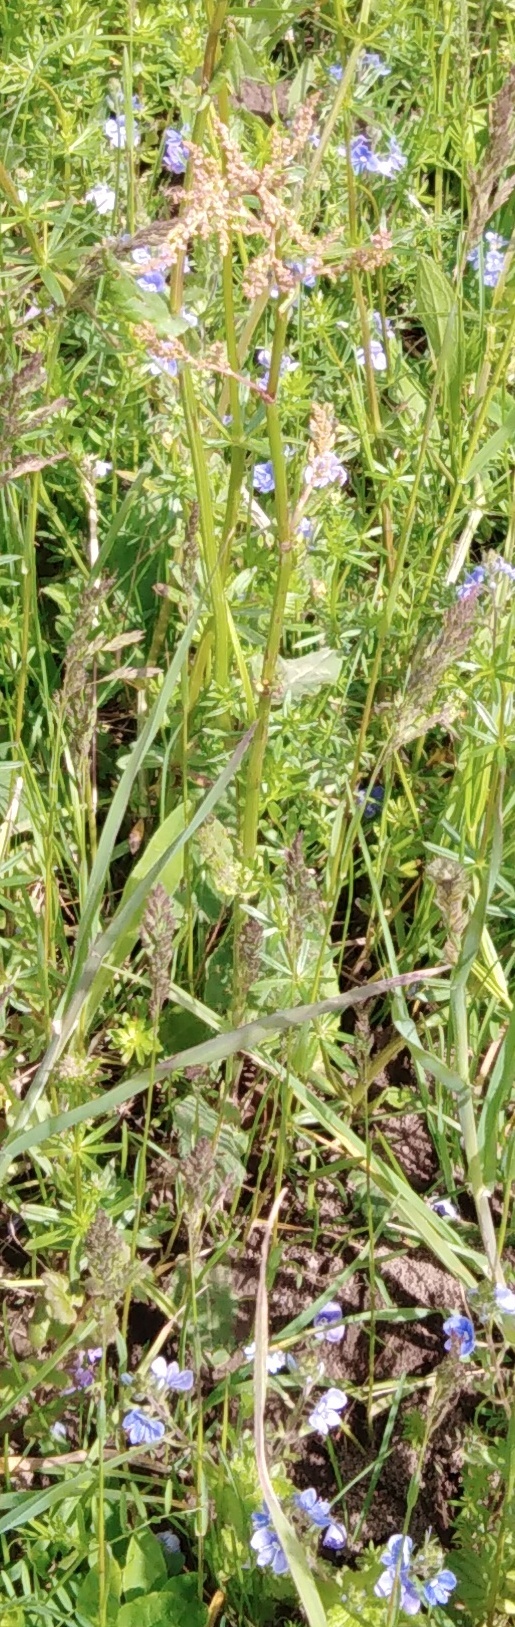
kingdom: Plantae
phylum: Tracheophyta
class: Magnoliopsida
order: Caryophyllales
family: Polygonaceae
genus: Rumex
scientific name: Rumex acetosa
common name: Garden sorrel
